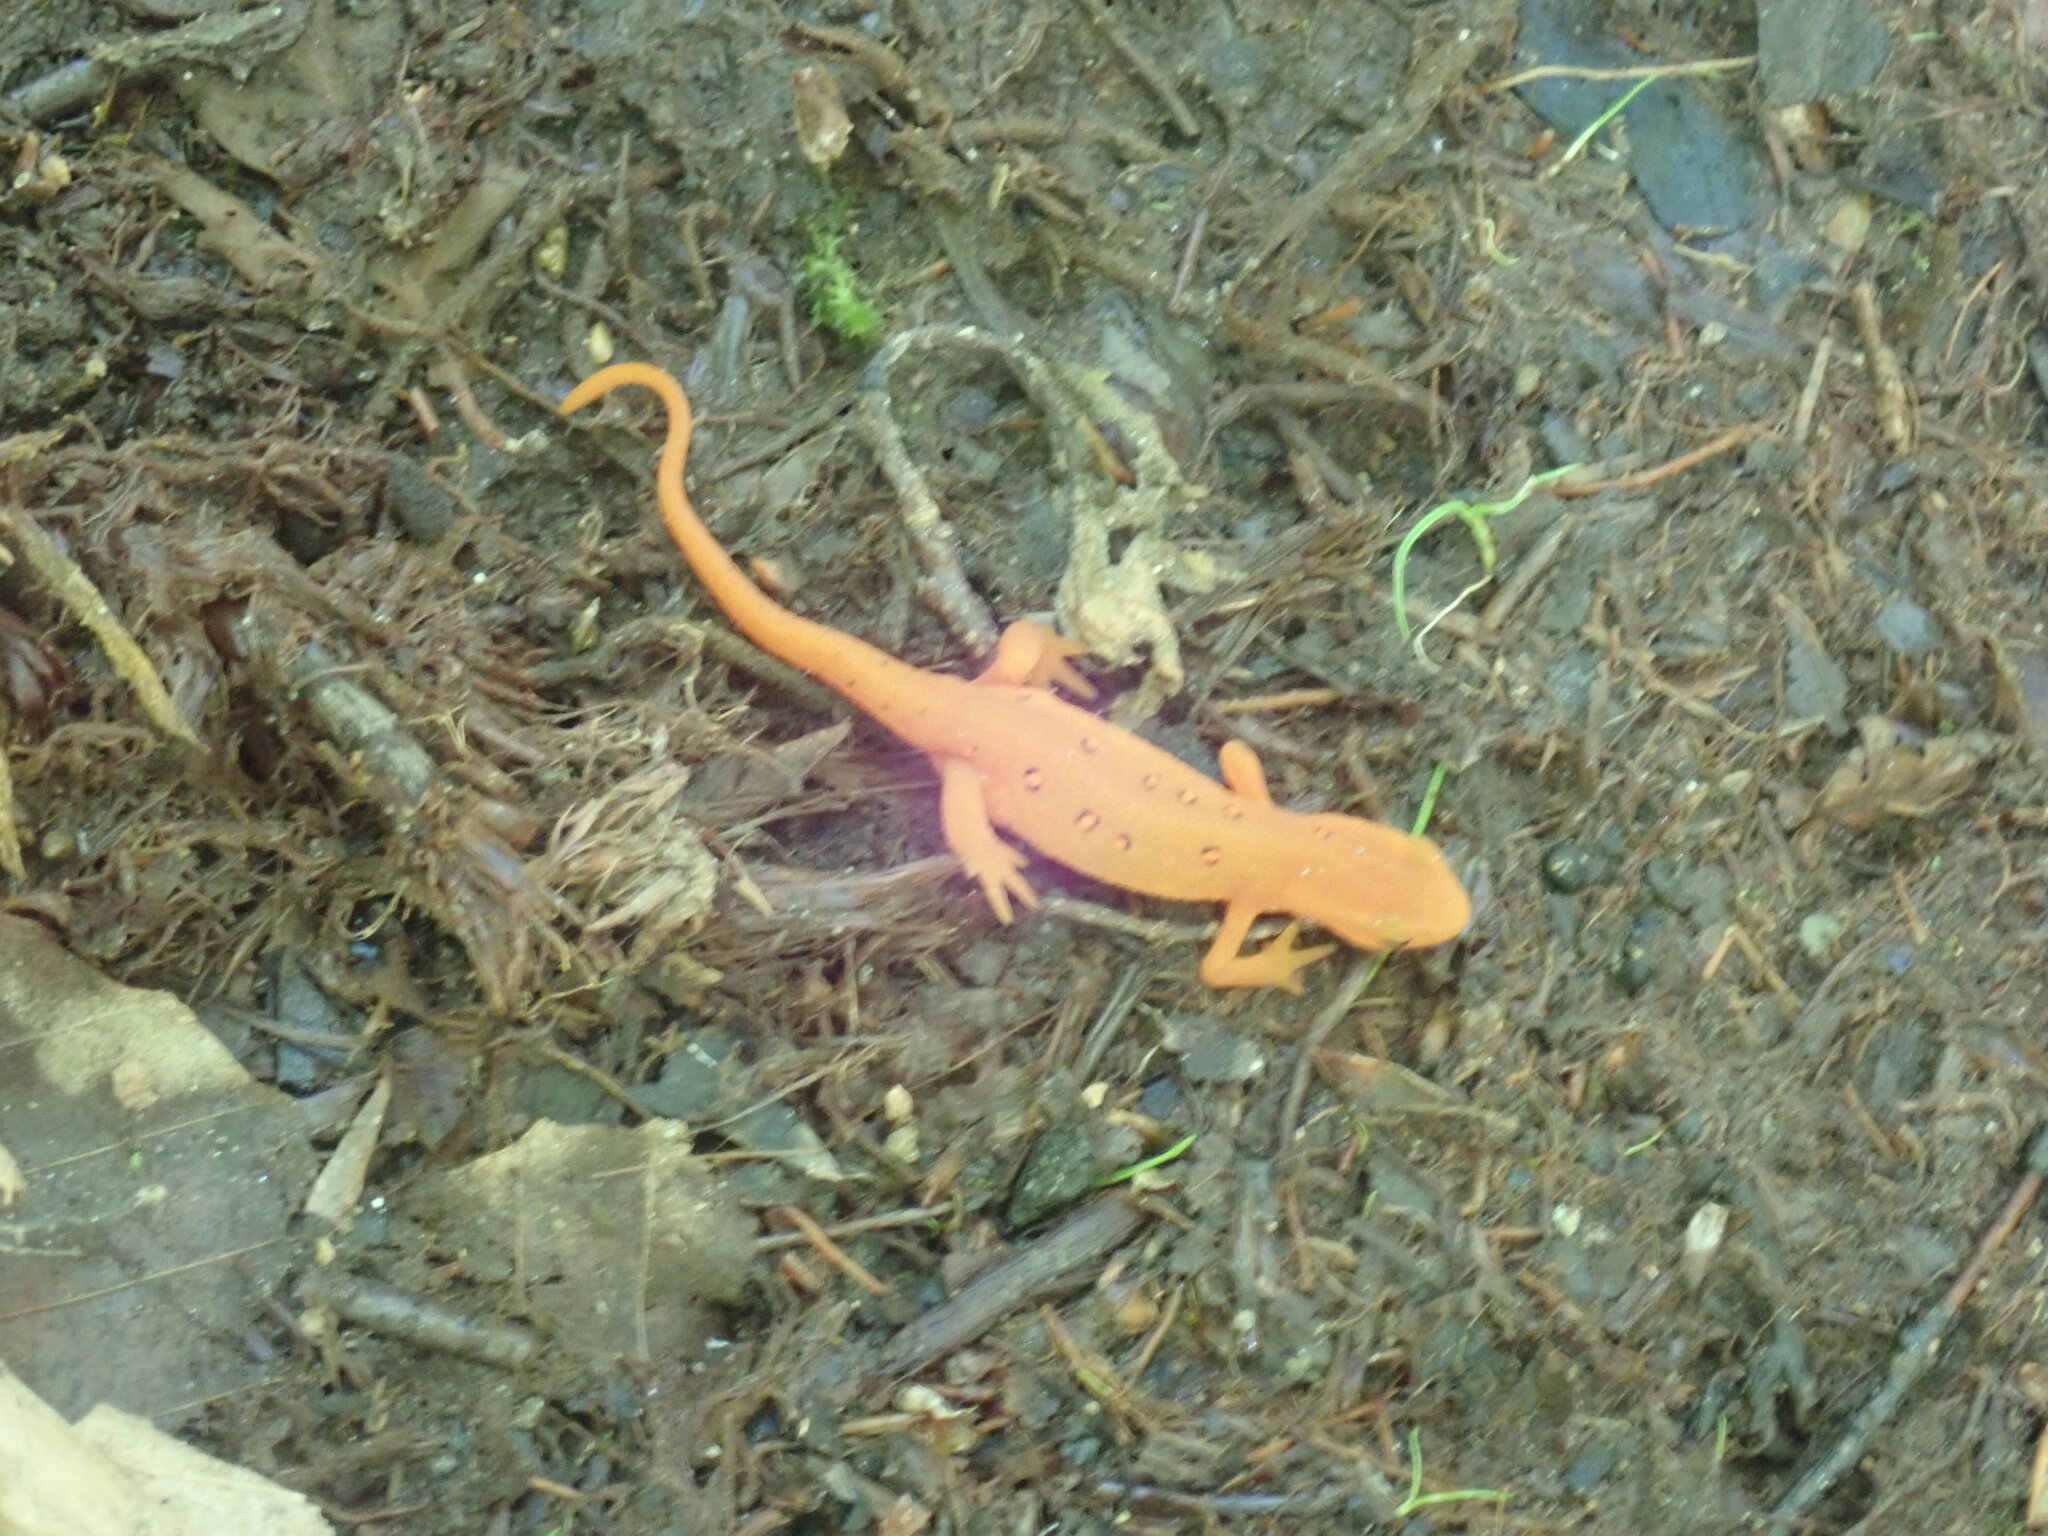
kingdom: Animalia
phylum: Chordata
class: Amphibia
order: Caudata
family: Salamandridae
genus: Notophthalmus
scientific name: Notophthalmus viridescens
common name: Eastern newt
